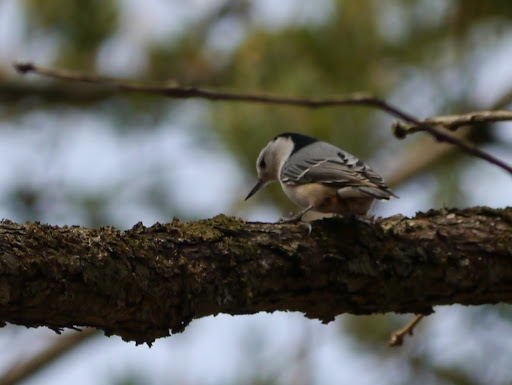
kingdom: Animalia
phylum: Chordata
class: Aves
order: Passeriformes
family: Sittidae
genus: Sitta
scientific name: Sitta carolinensis
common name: White-breasted nuthatch
